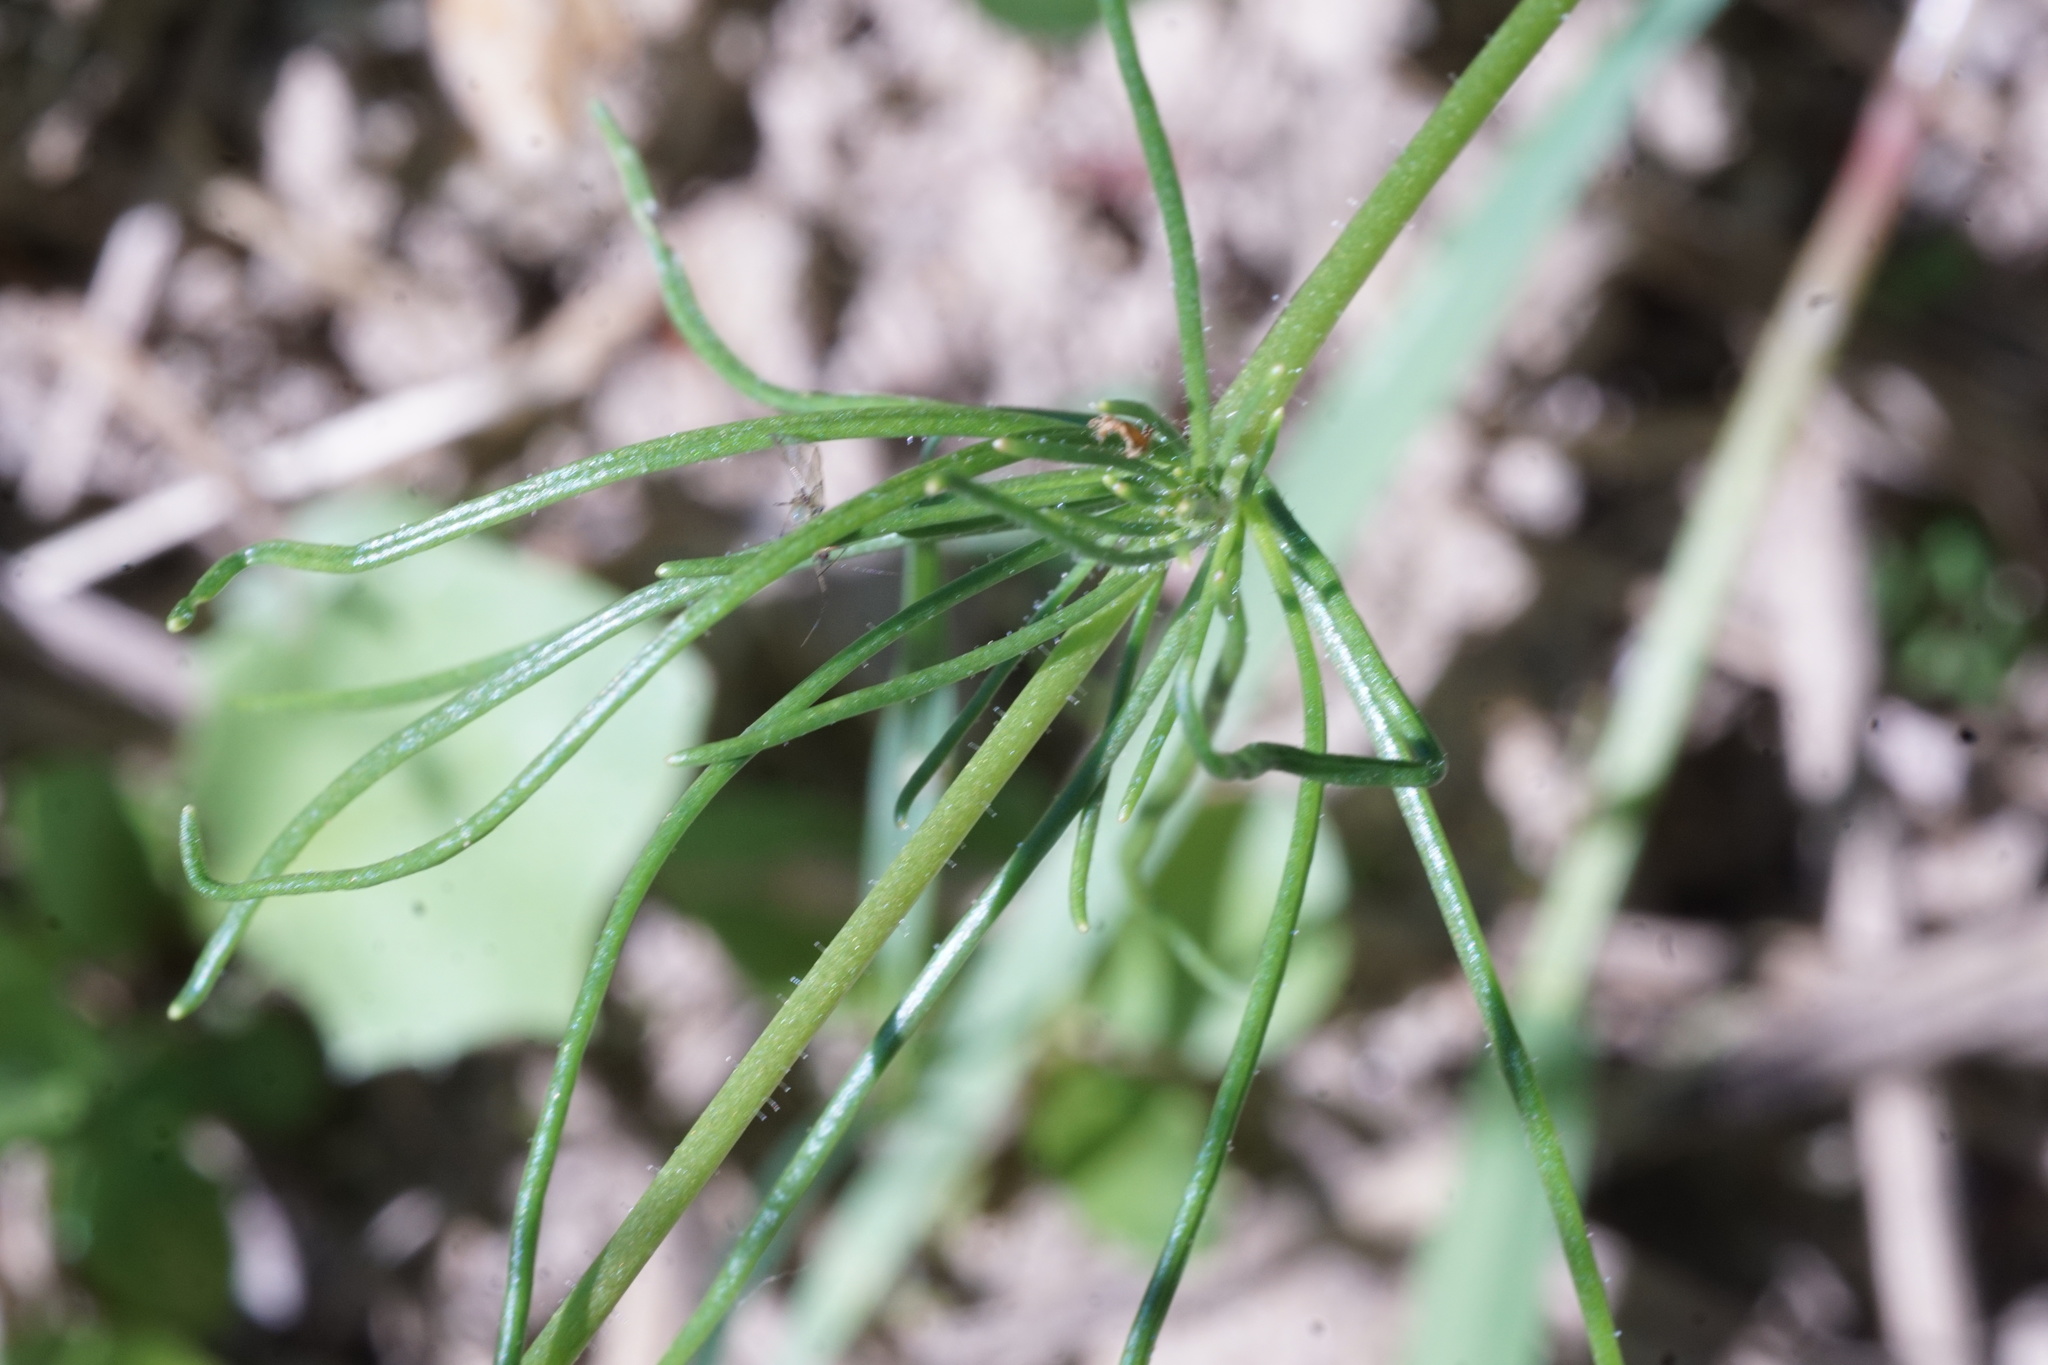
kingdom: Plantae
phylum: Tracheophyta
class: Magnoliopsida
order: Caryophyllales
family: Caryophyllaceae
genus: Spergula
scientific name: Spergula arvensis
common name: Corn spurrey
